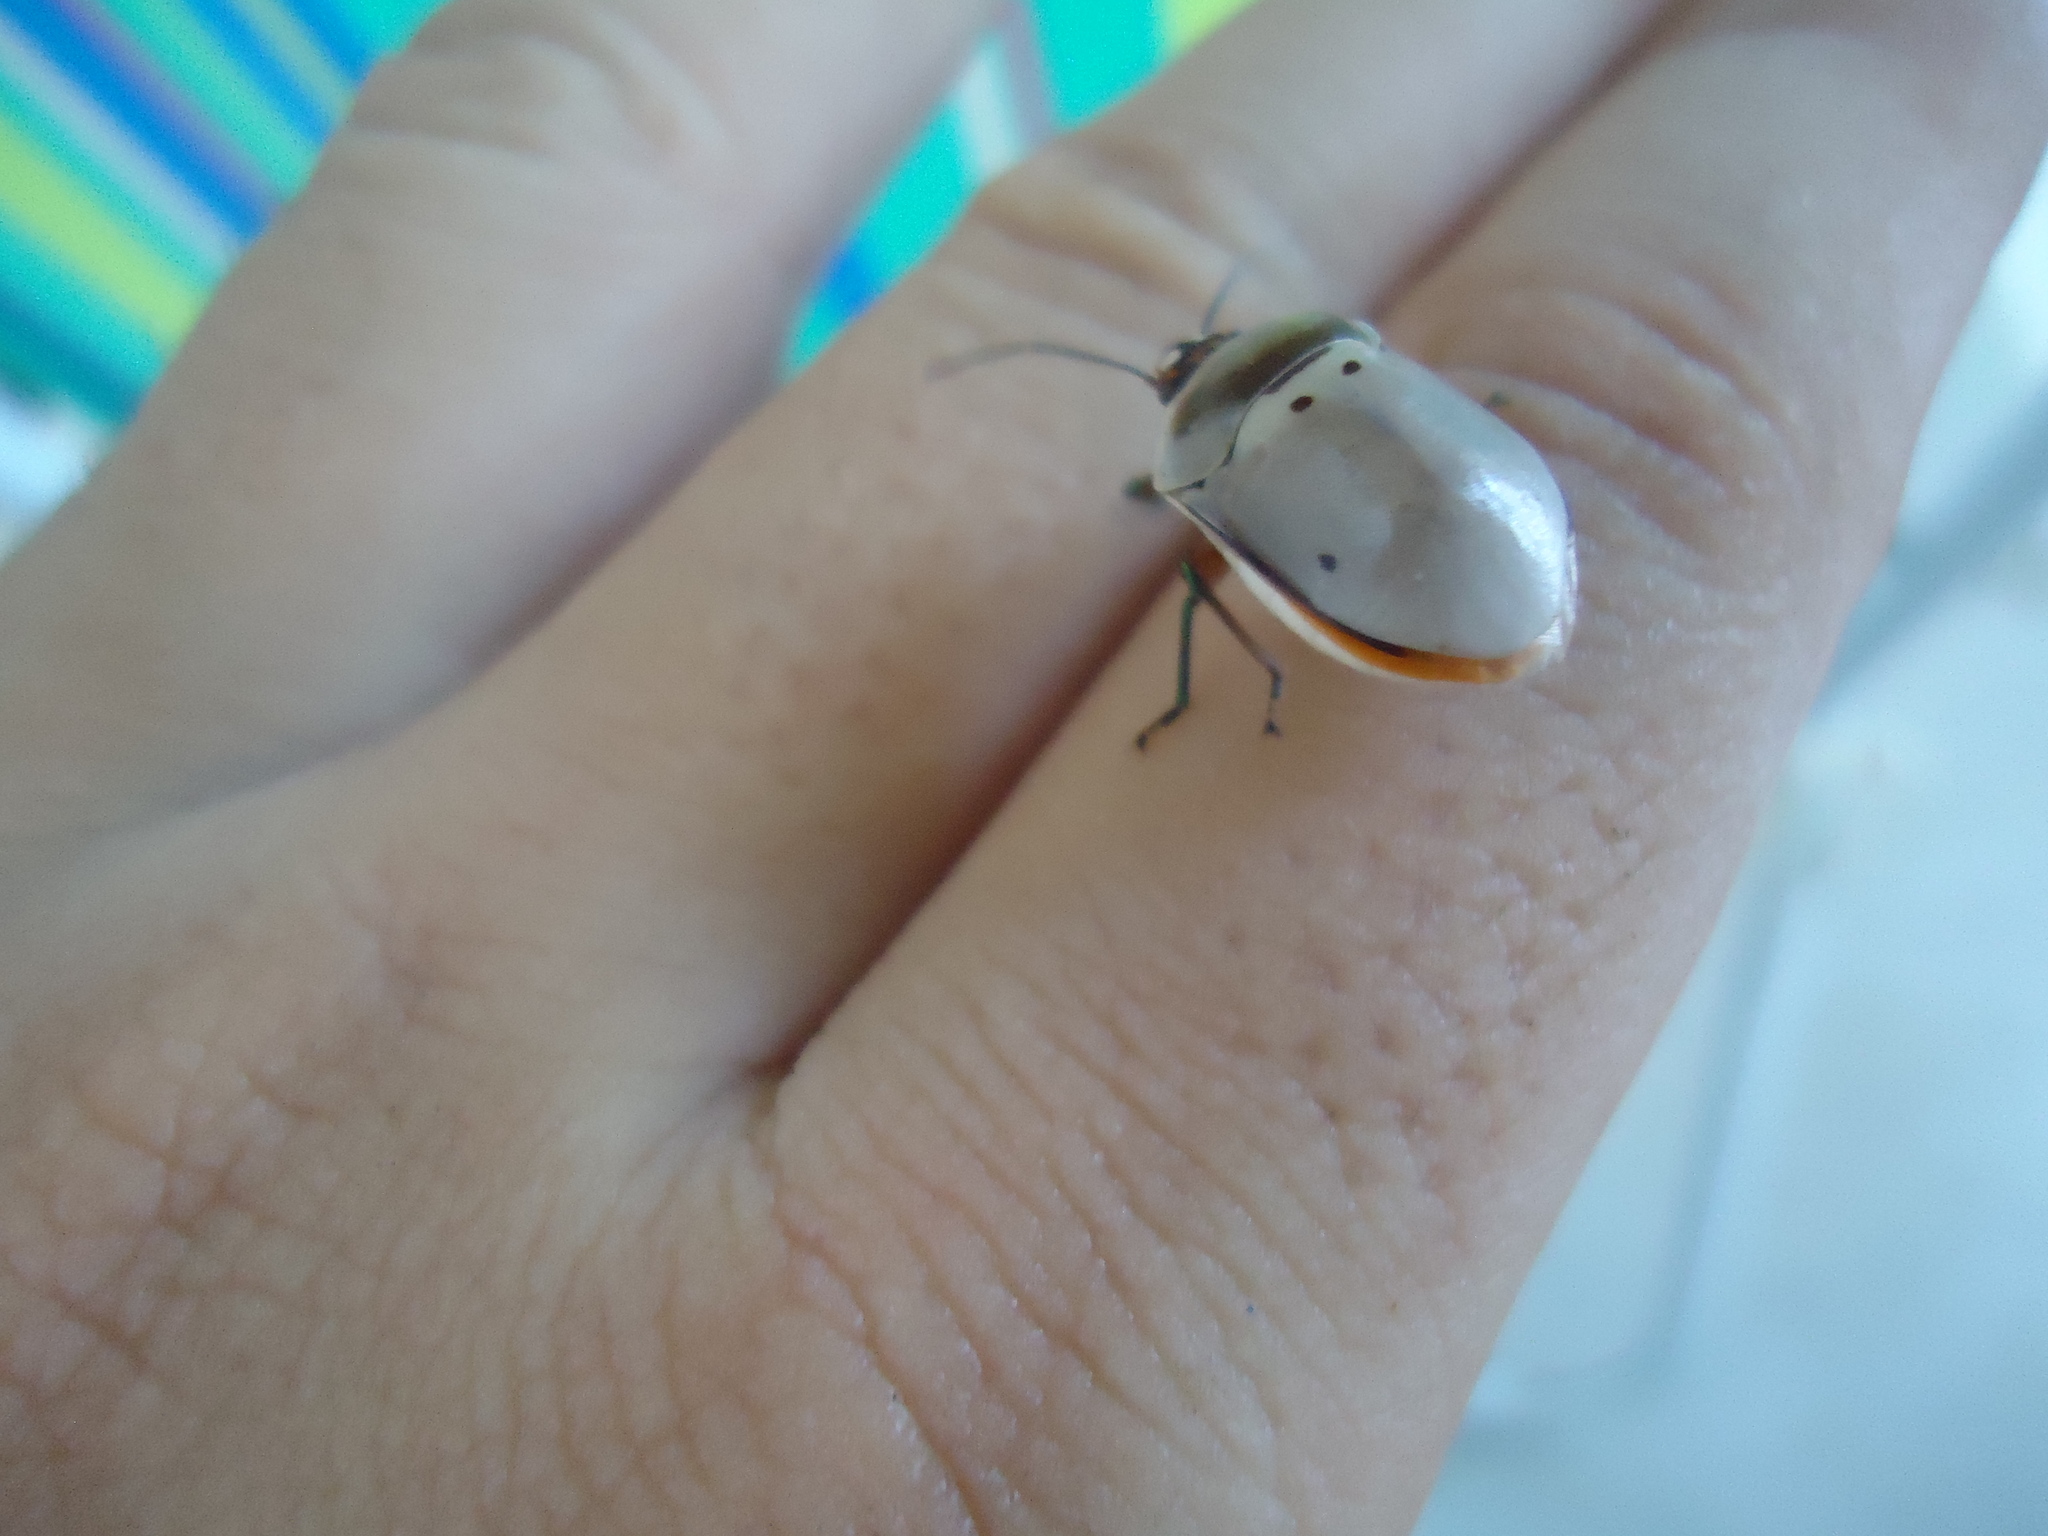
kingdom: Animalia
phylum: Arthropoda
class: Insecta
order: Hemiptera
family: Scutelleridae
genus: Augocoris
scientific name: Augocoris illustris
